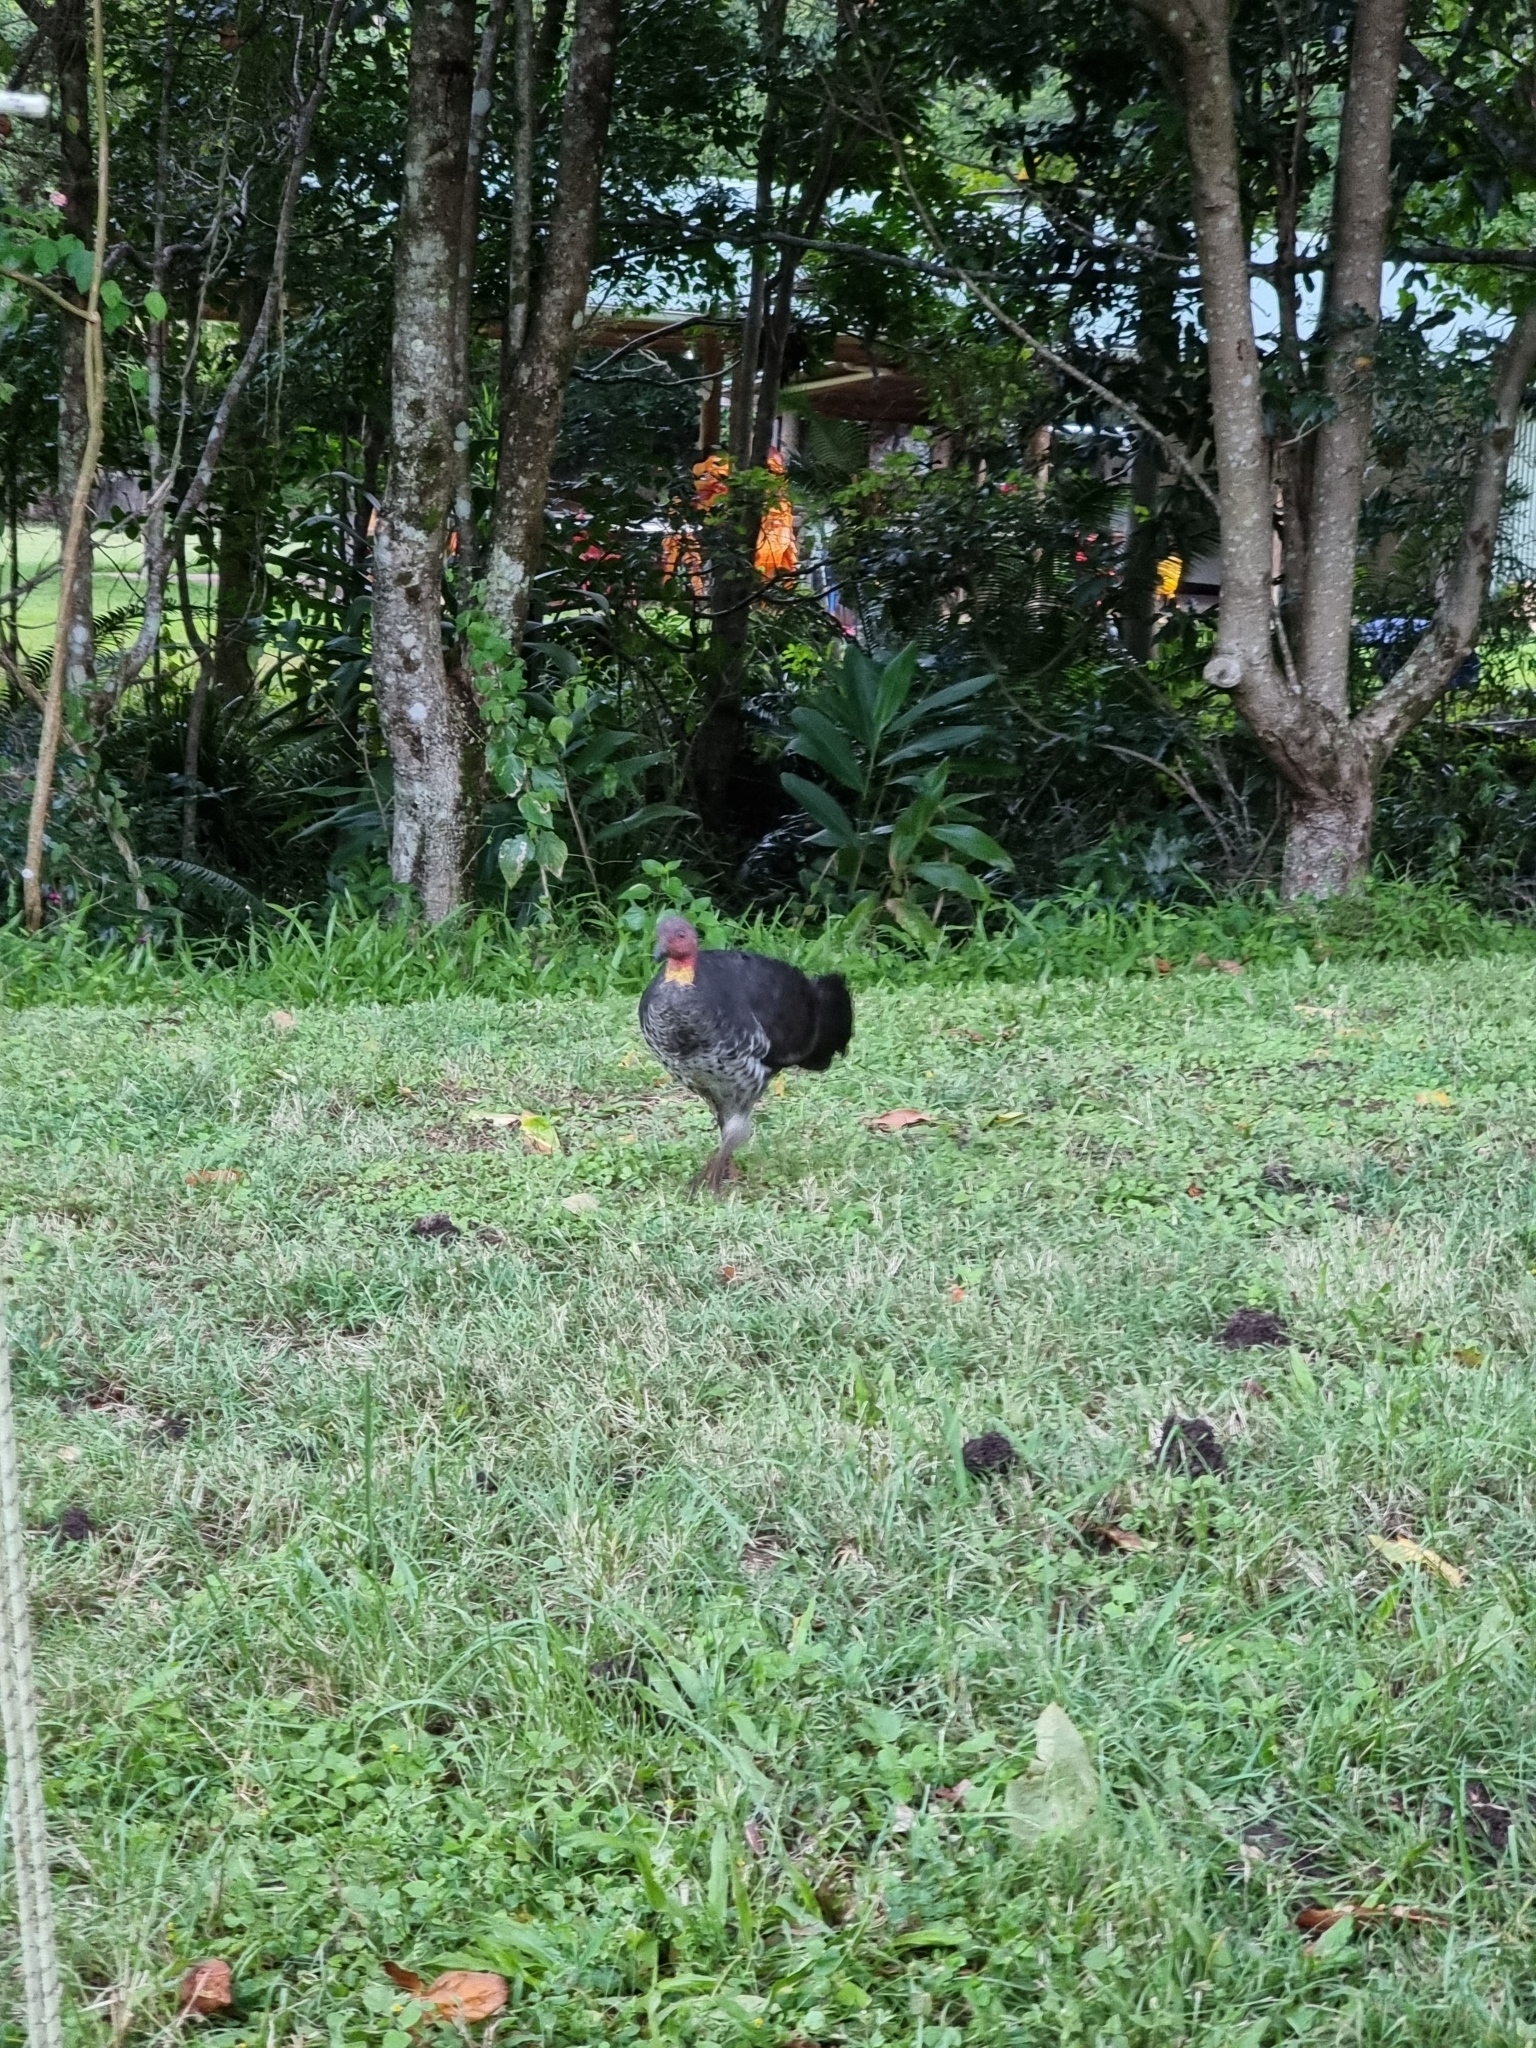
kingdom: Animalia
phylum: Chordata
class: Aves
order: Galliformes
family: Megapodiidae
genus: Alectura
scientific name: Alectura lathami
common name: Australian brushturkey
